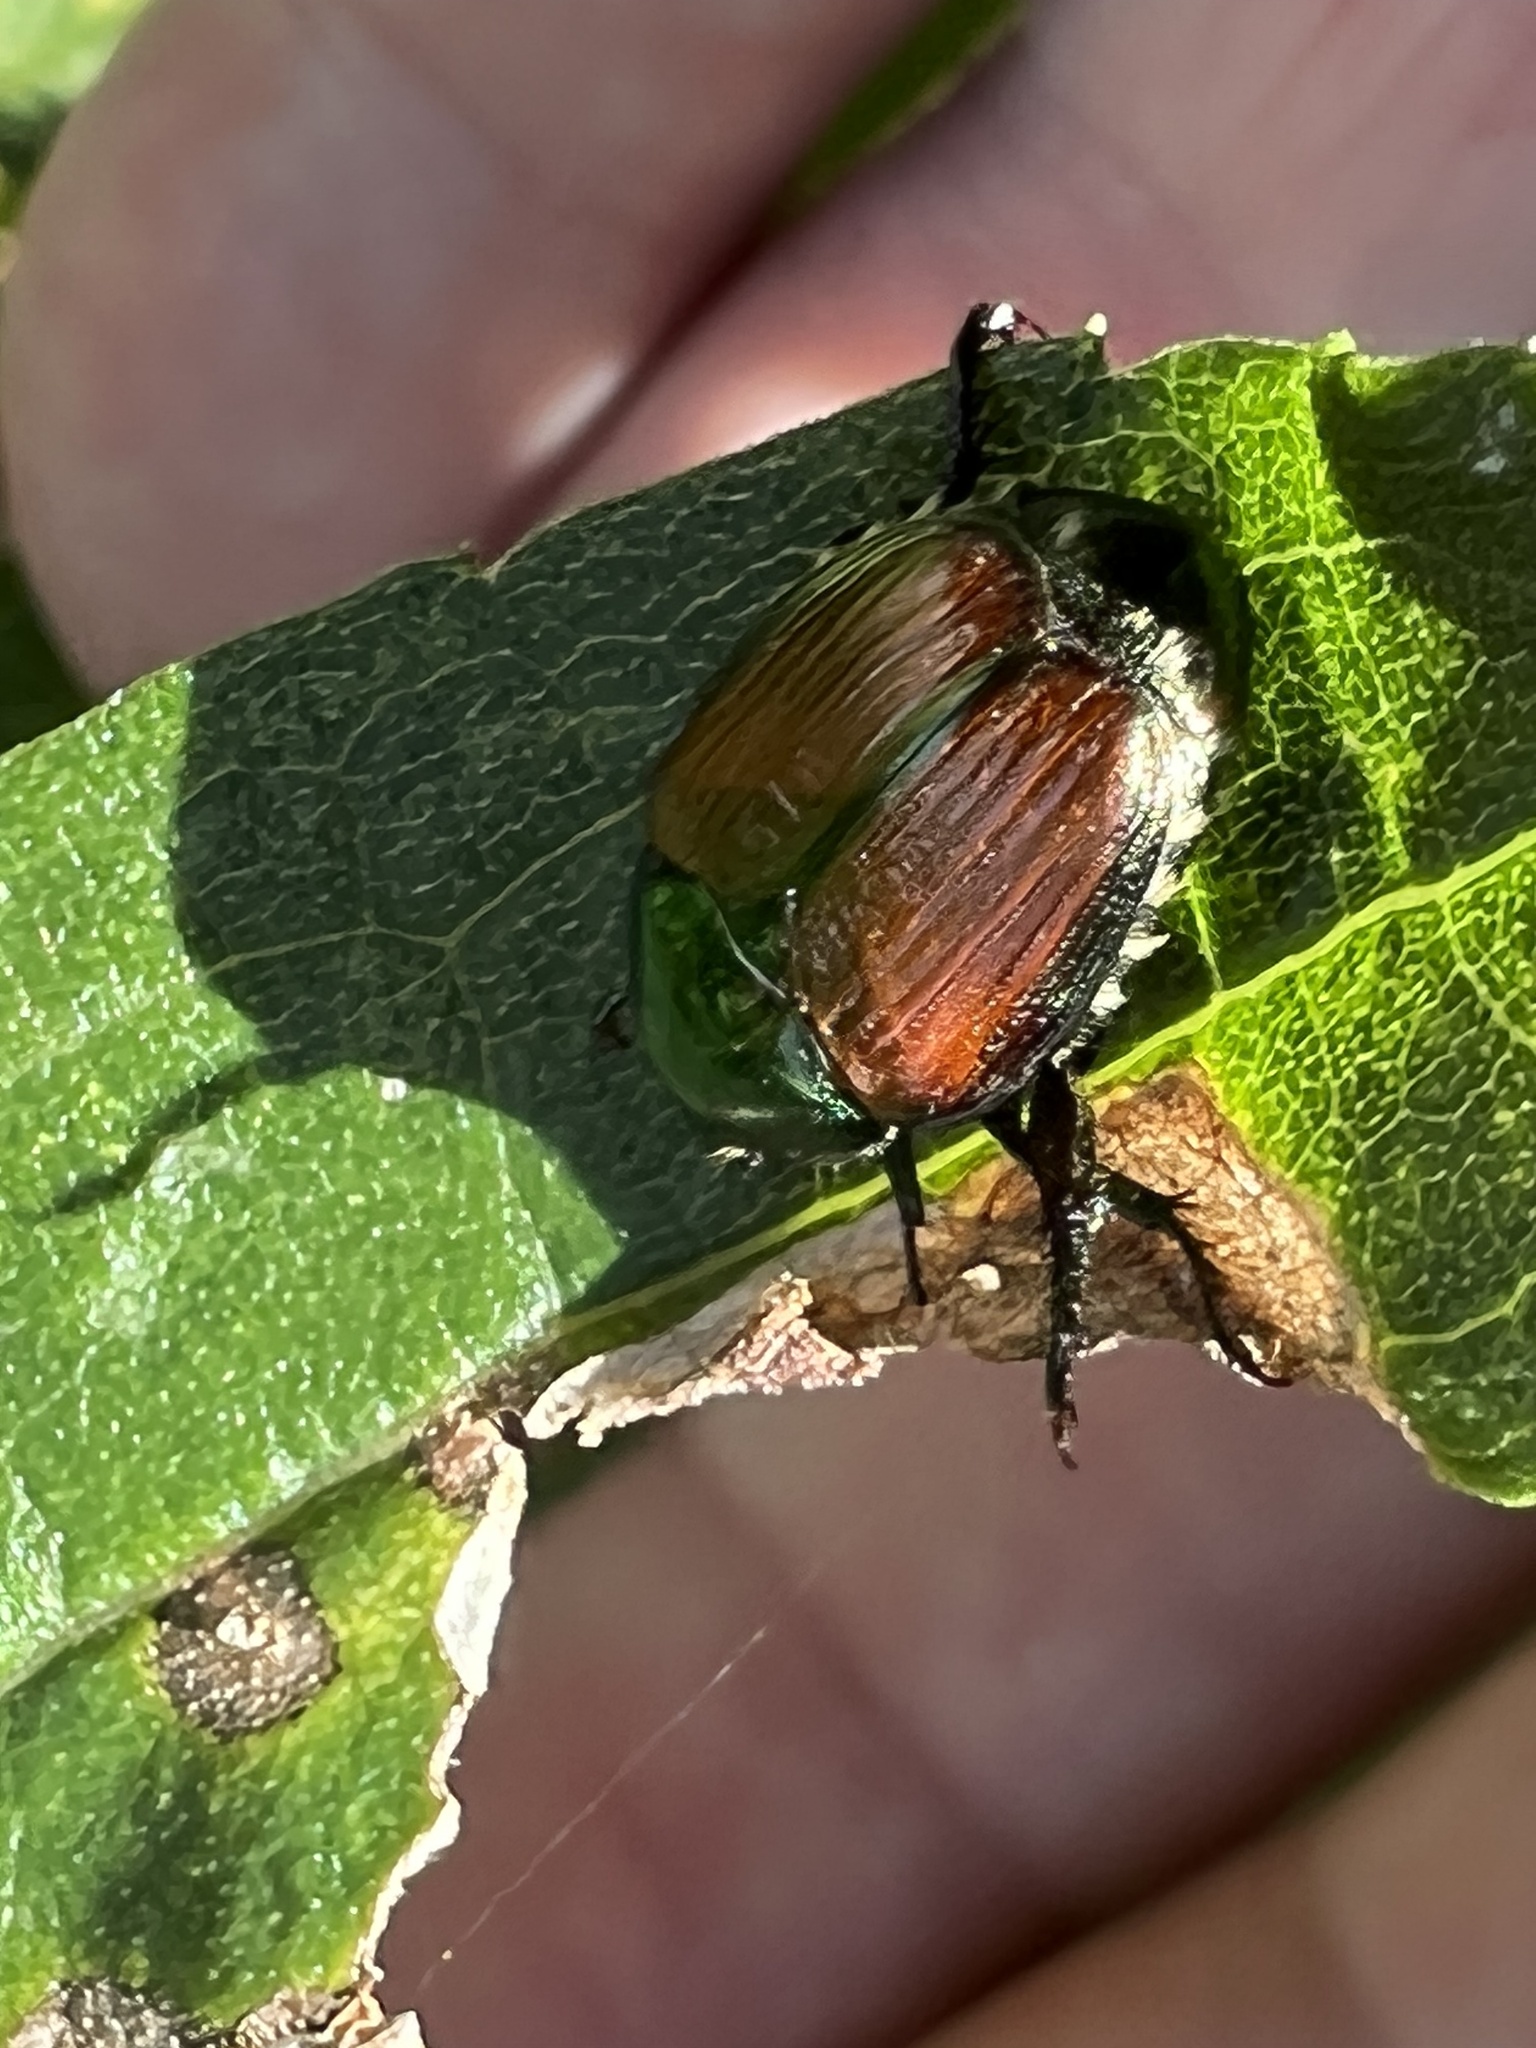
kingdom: Animalia
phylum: Arthropoda
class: Insecta
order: Coleoptera
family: Scarabaeidae
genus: Popillia
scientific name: Popillia japonica
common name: Japanese beetle
